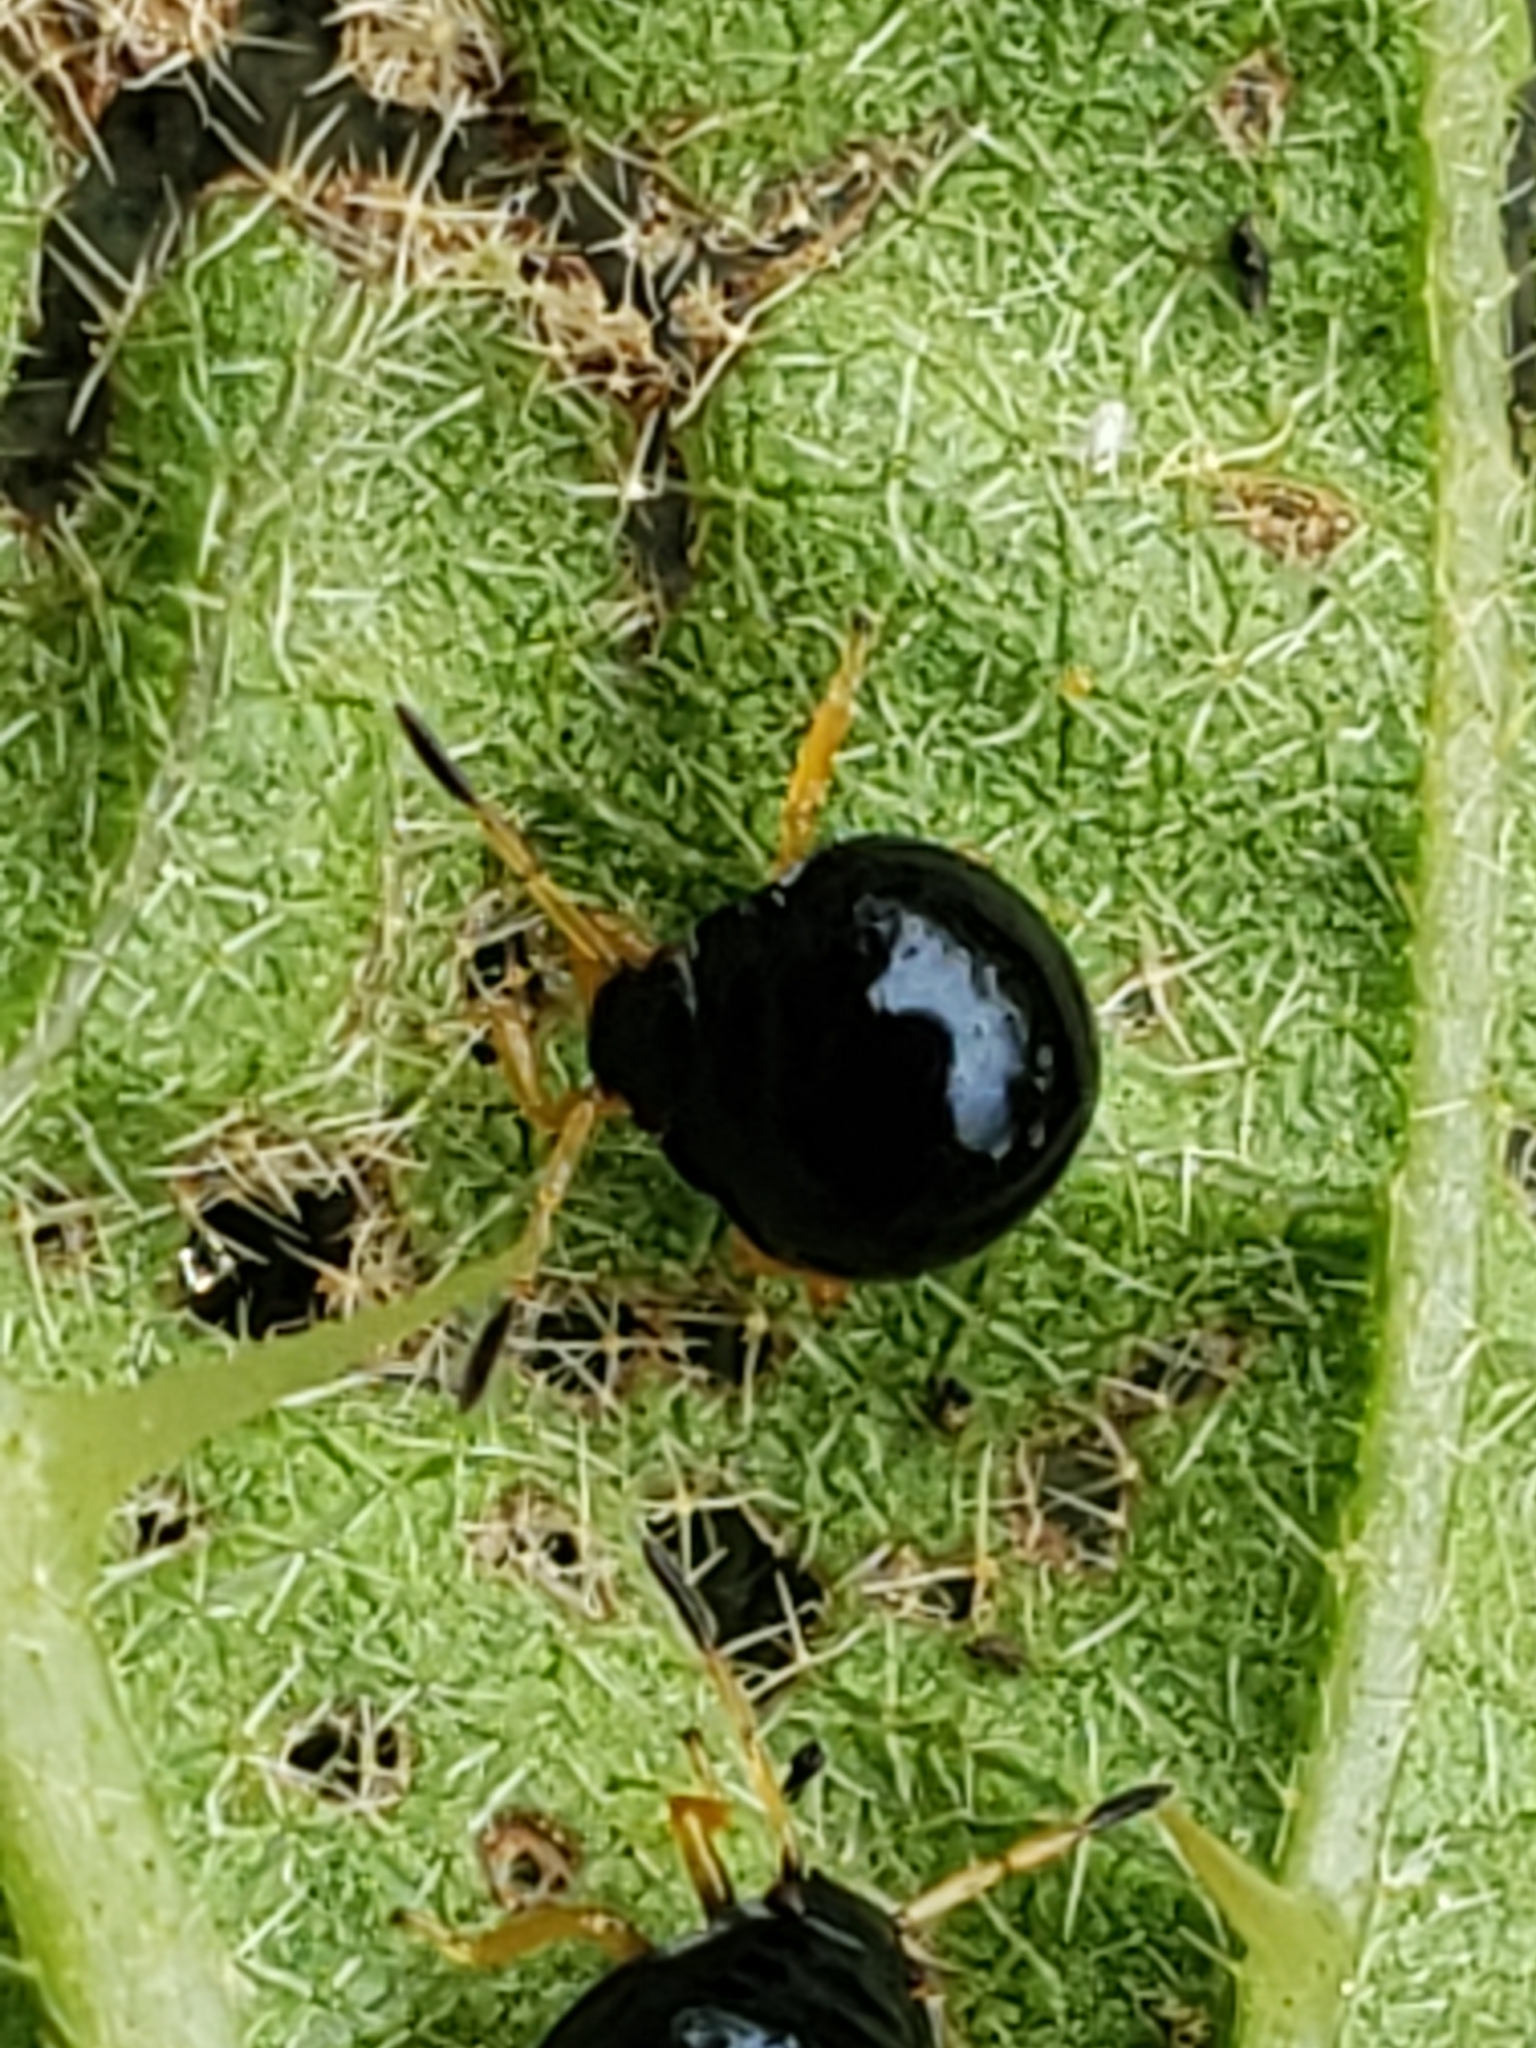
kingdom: Animalia
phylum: Arthropoda
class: Insecta
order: Hemiptera
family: Pentatomidae
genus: Stiretrus
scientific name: Stiretrus anchorago
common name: Anchor stink bug
